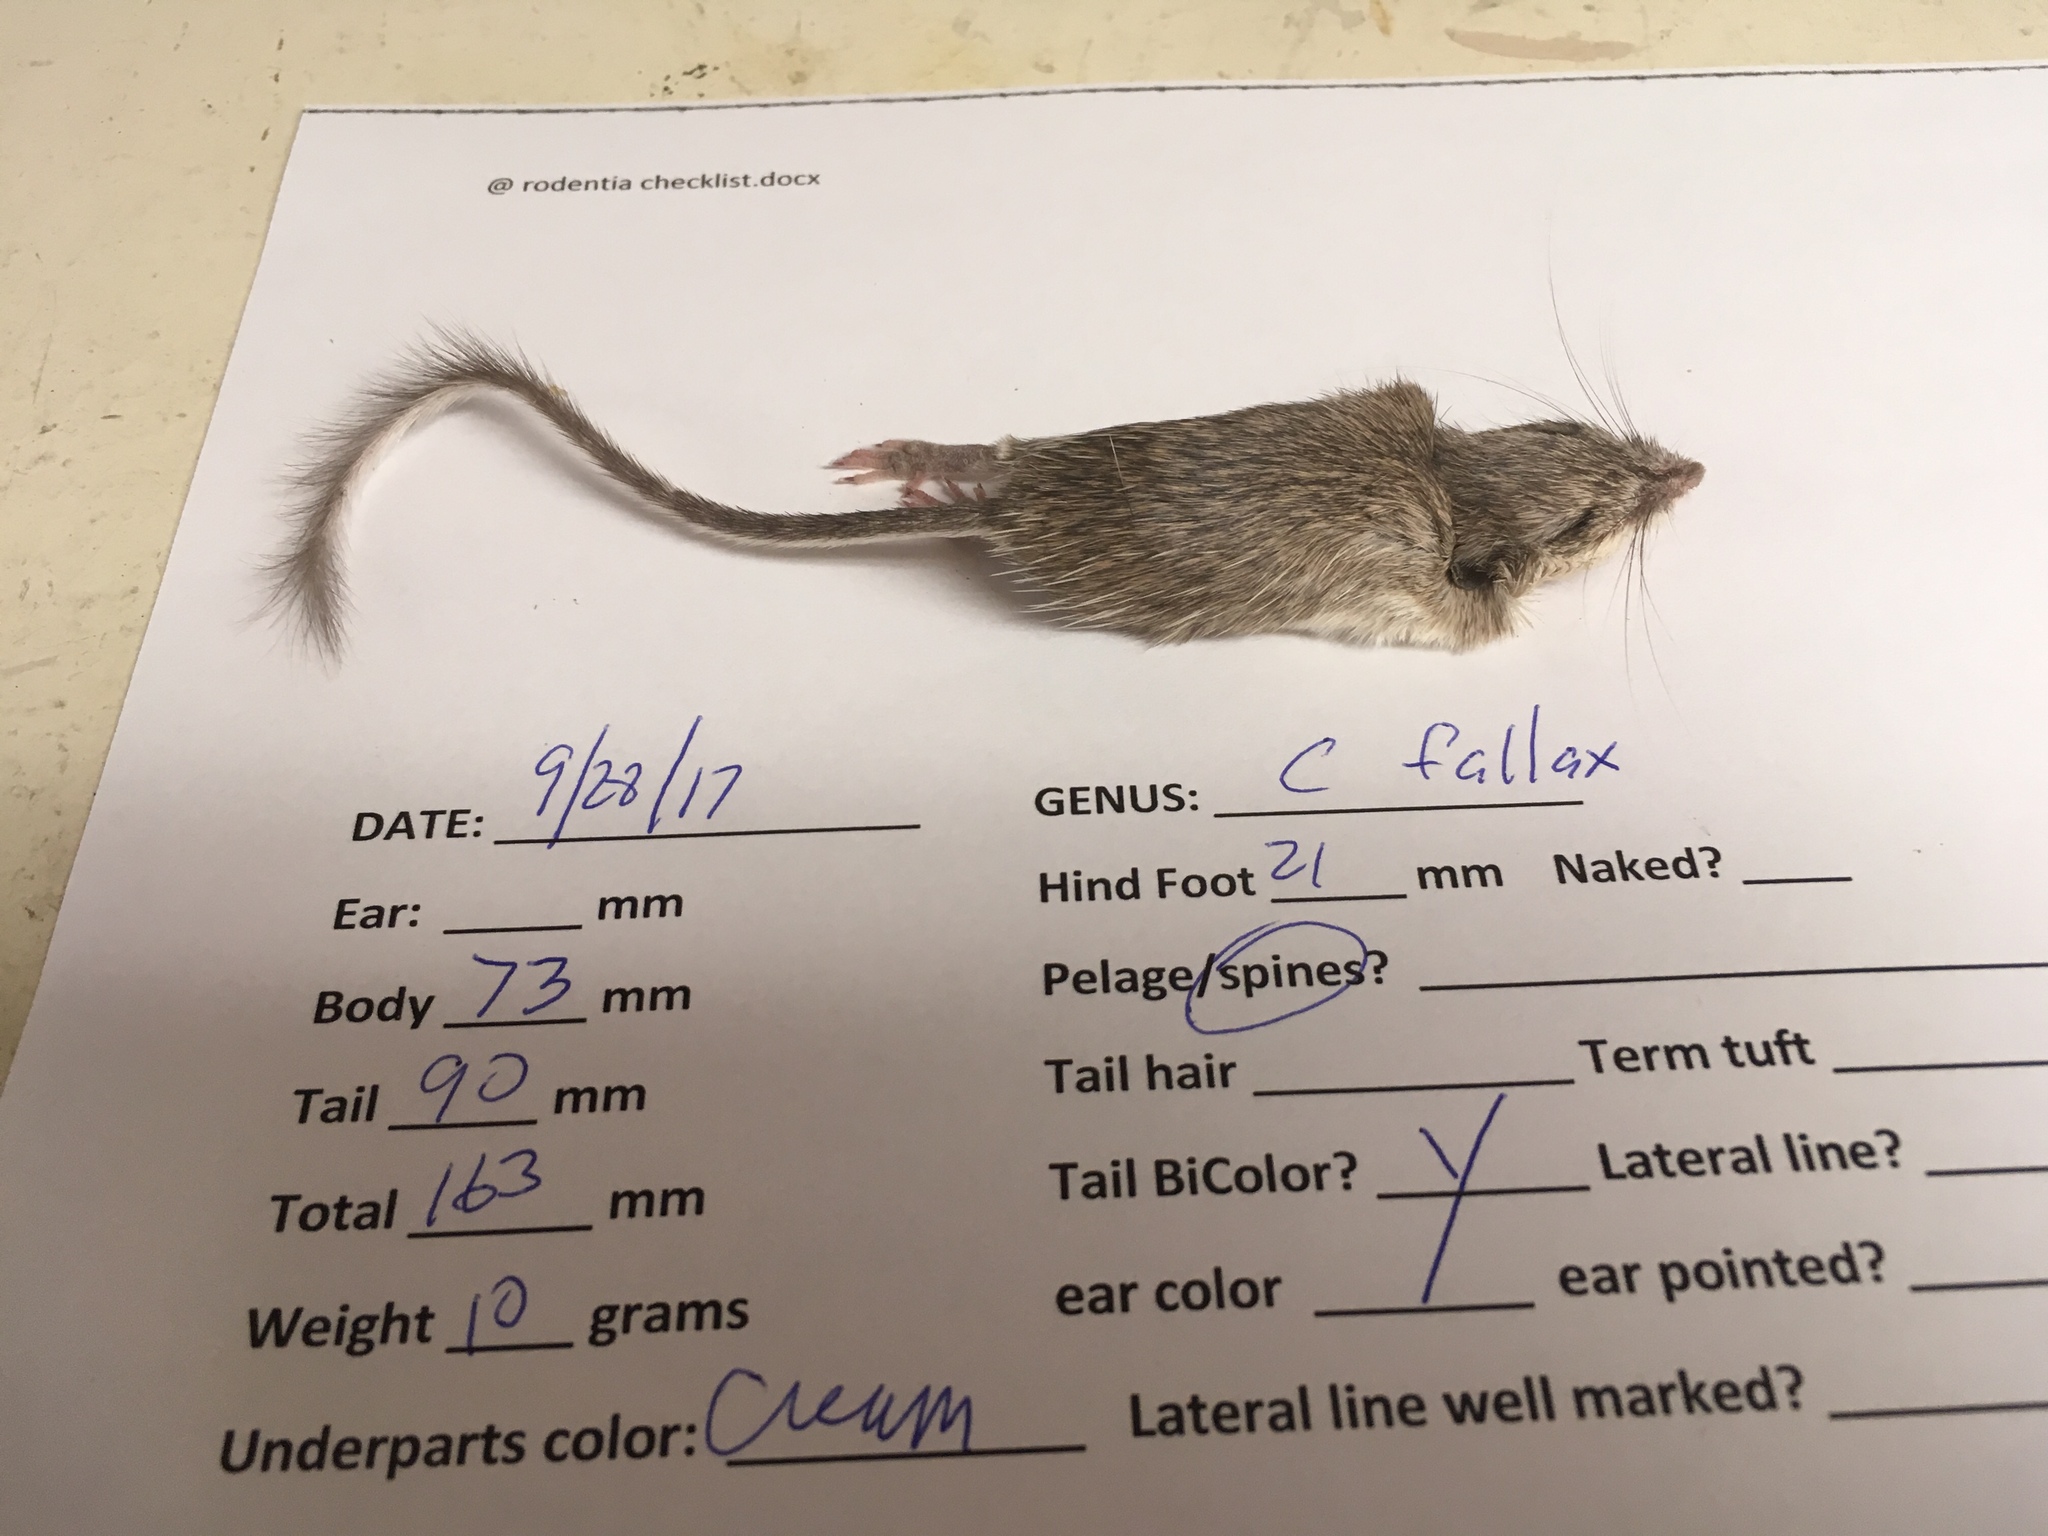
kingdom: Animalia
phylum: Chordata
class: Mammalia
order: Rodentia
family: Heteromyidae
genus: Chaetodipus
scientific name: Chaetodipus fallax
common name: San diego pocket mouse
